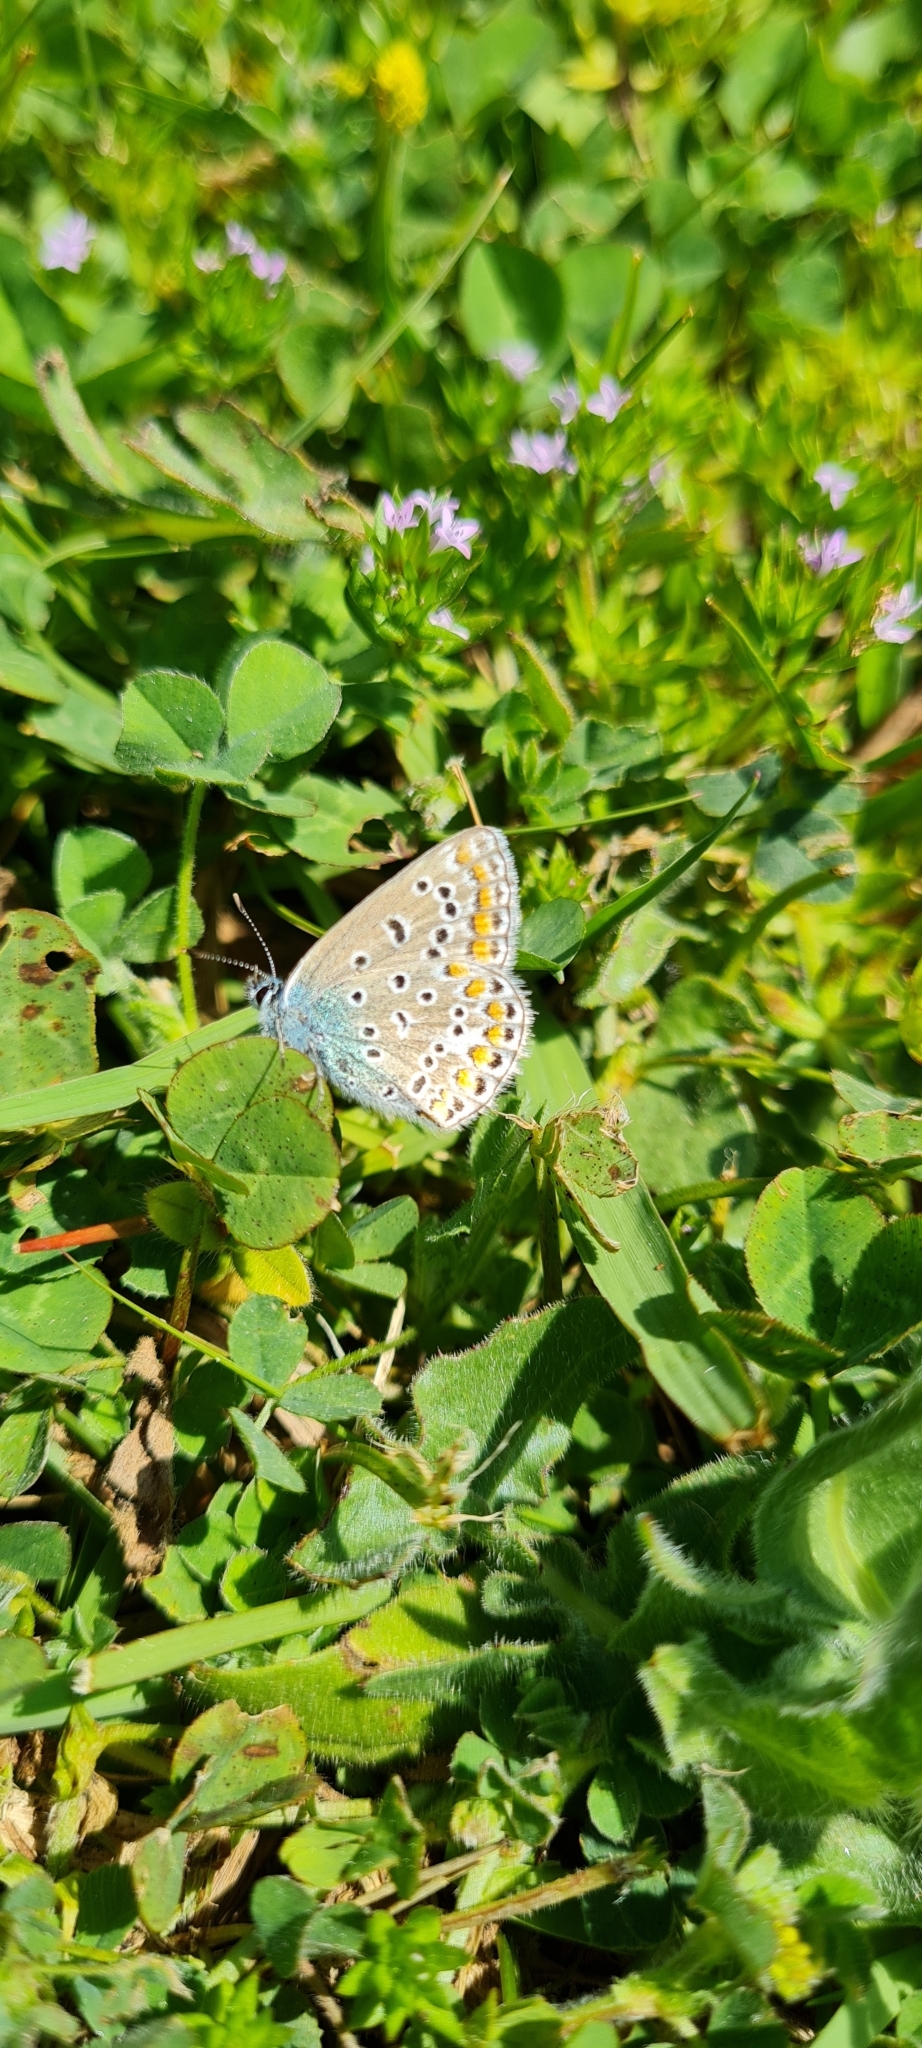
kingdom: Animalia
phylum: Arthropoda
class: Insecta
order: Lepidoptera
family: Lycaenidae
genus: Polyommatus
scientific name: Polyommatus icarus
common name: Common blue
